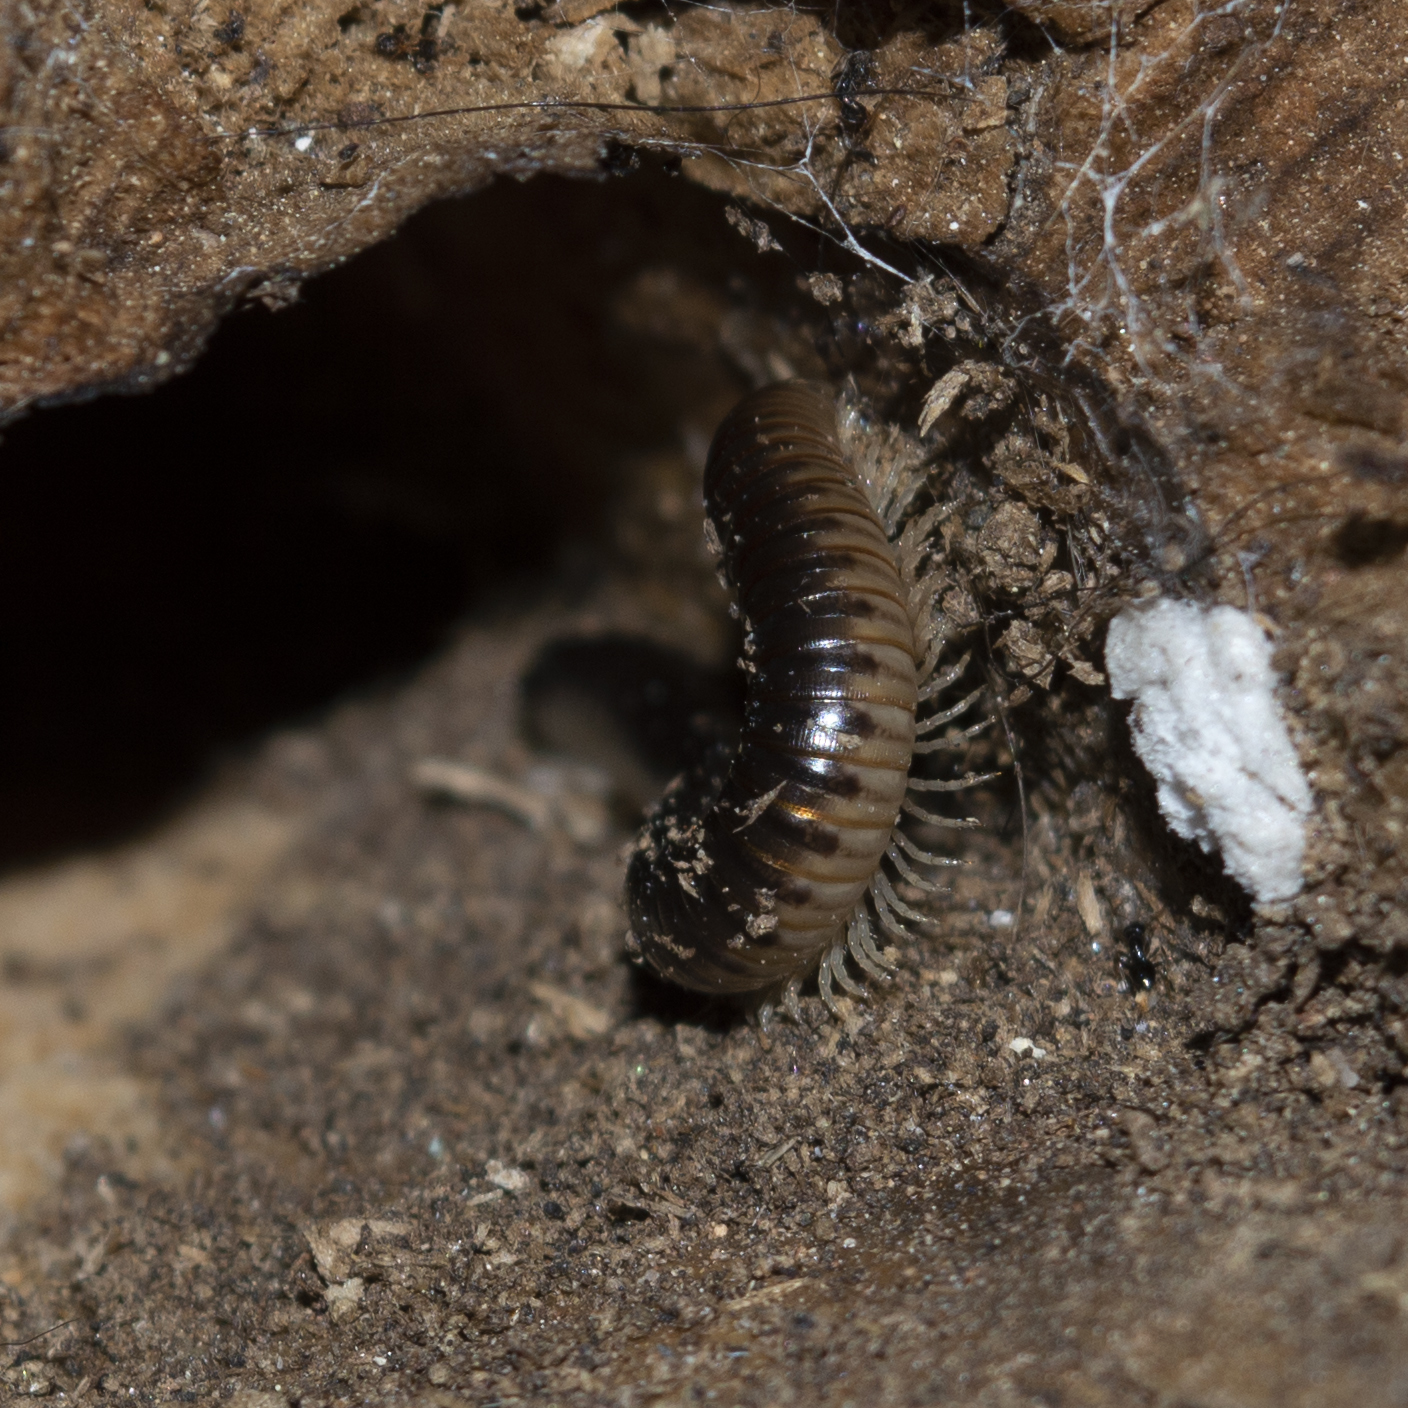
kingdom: Animalia
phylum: Arthropoda
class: Diplopoda
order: Julida
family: Julidae
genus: Pachyiulus
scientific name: Pachyiulus flavipes
